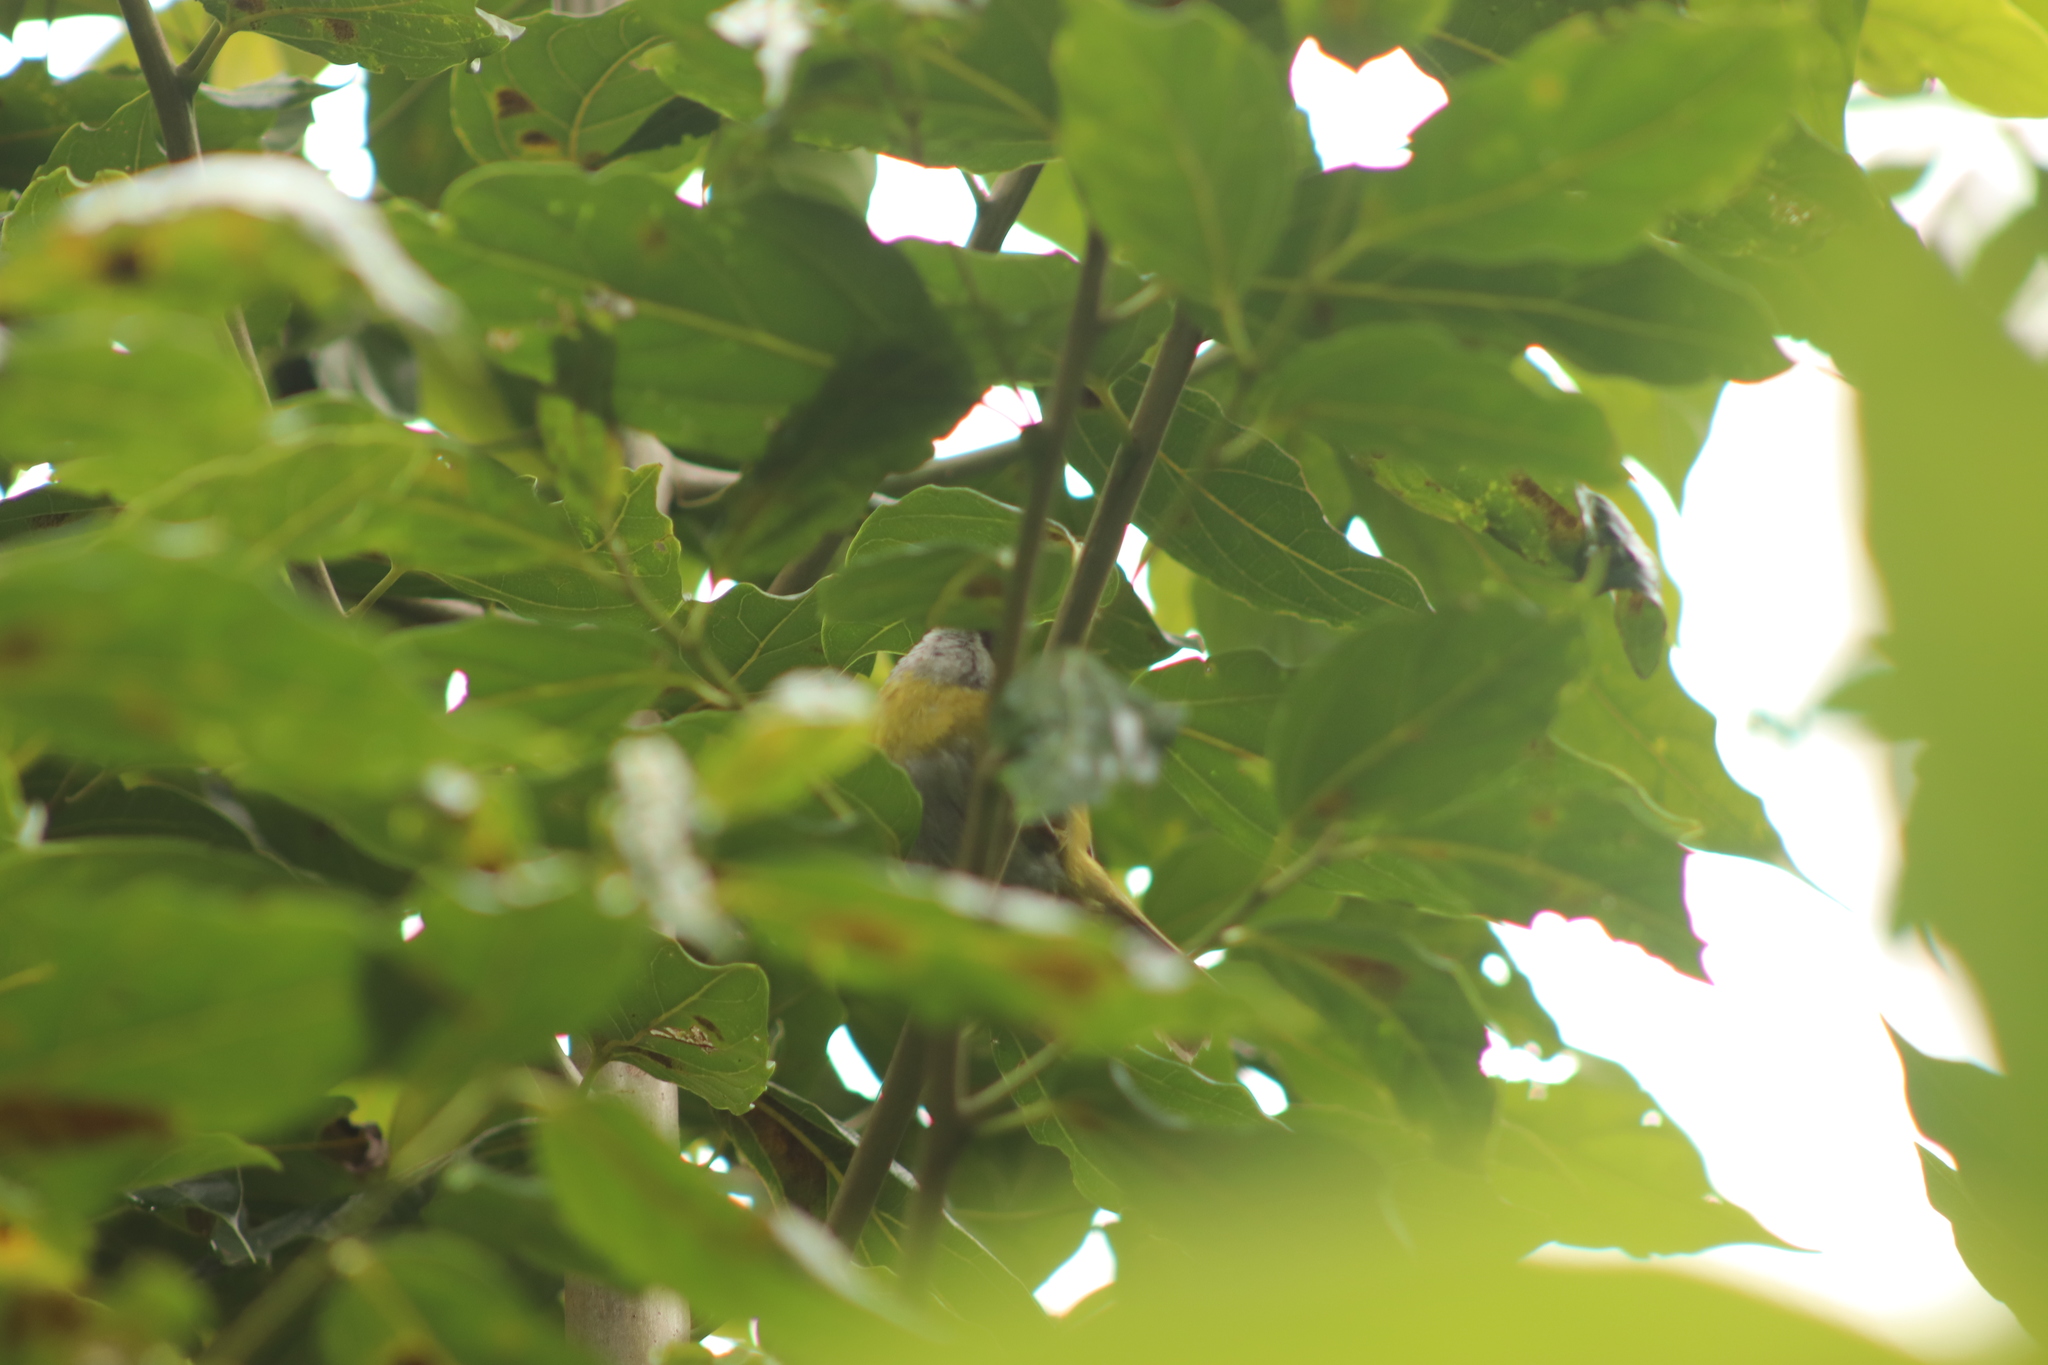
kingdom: Animalia
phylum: Chordata
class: Aves
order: Passeriformes
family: Passerellidae
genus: Chlorospingus
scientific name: Chlorospingus pileatus
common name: Sooty-capped bush-tanager
